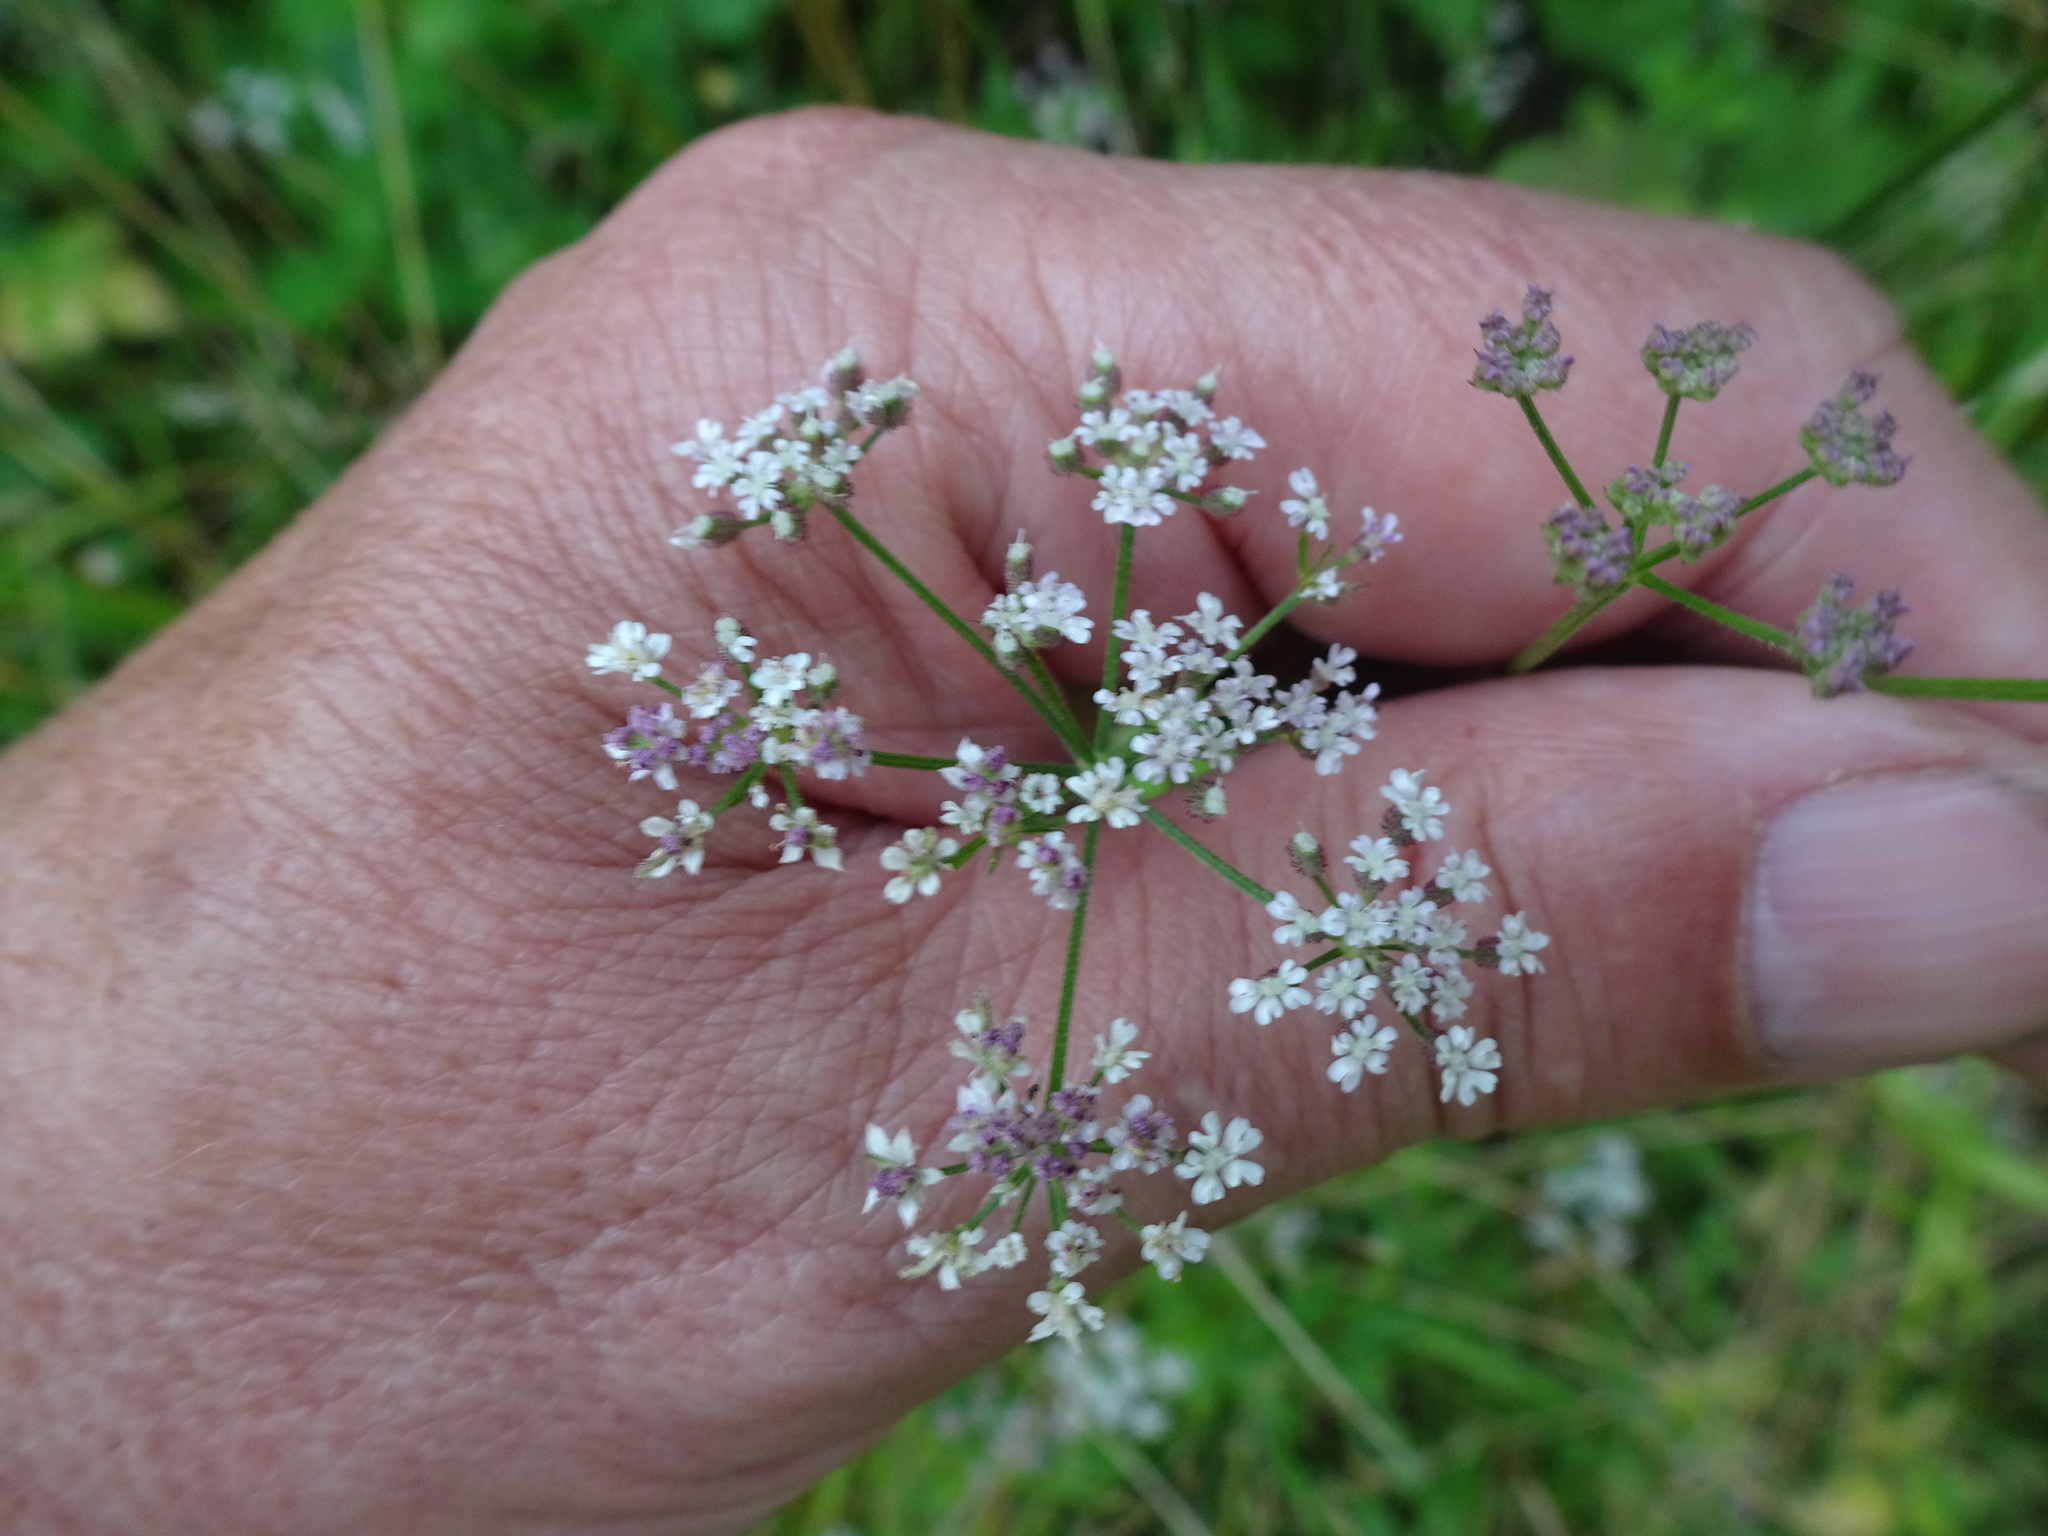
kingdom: Plantae
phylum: Tracheophyta
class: Magnoliopsida
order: Apiales
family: Apiaceae
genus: Torilis
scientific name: Torilis japonica
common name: Upright hedge-parsley
